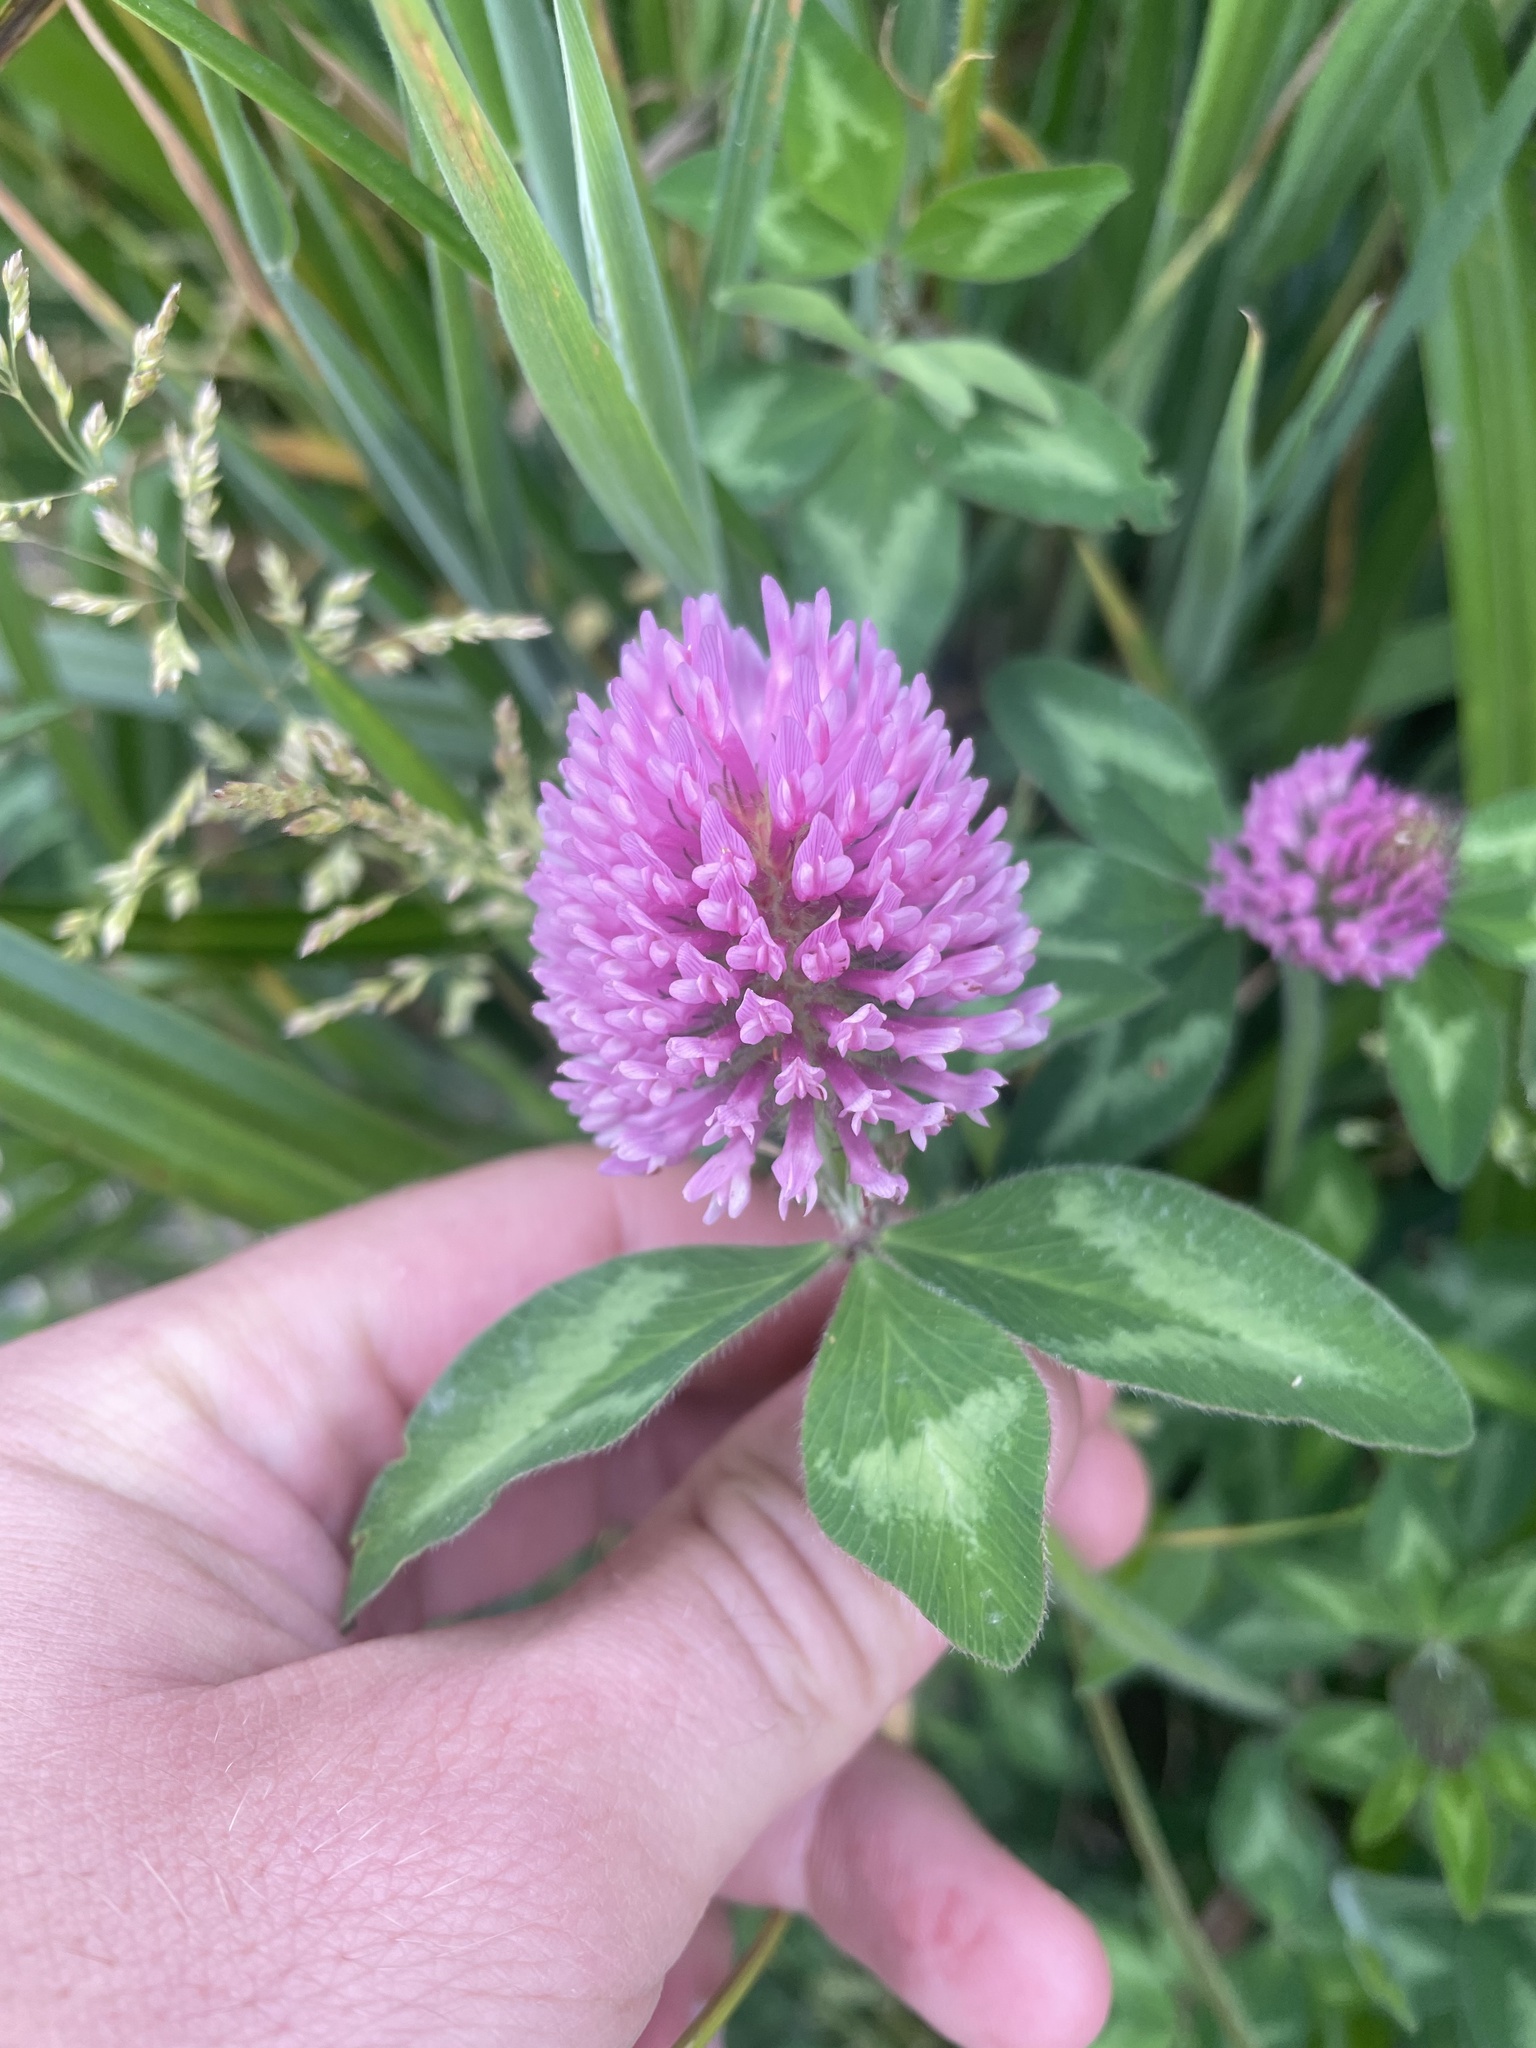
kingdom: Plantae
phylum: Tracheophyta
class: Magnoliopsida
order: Fabales
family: Fabaceae
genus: Trifolium
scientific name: Trifolium pratense
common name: Red clover
